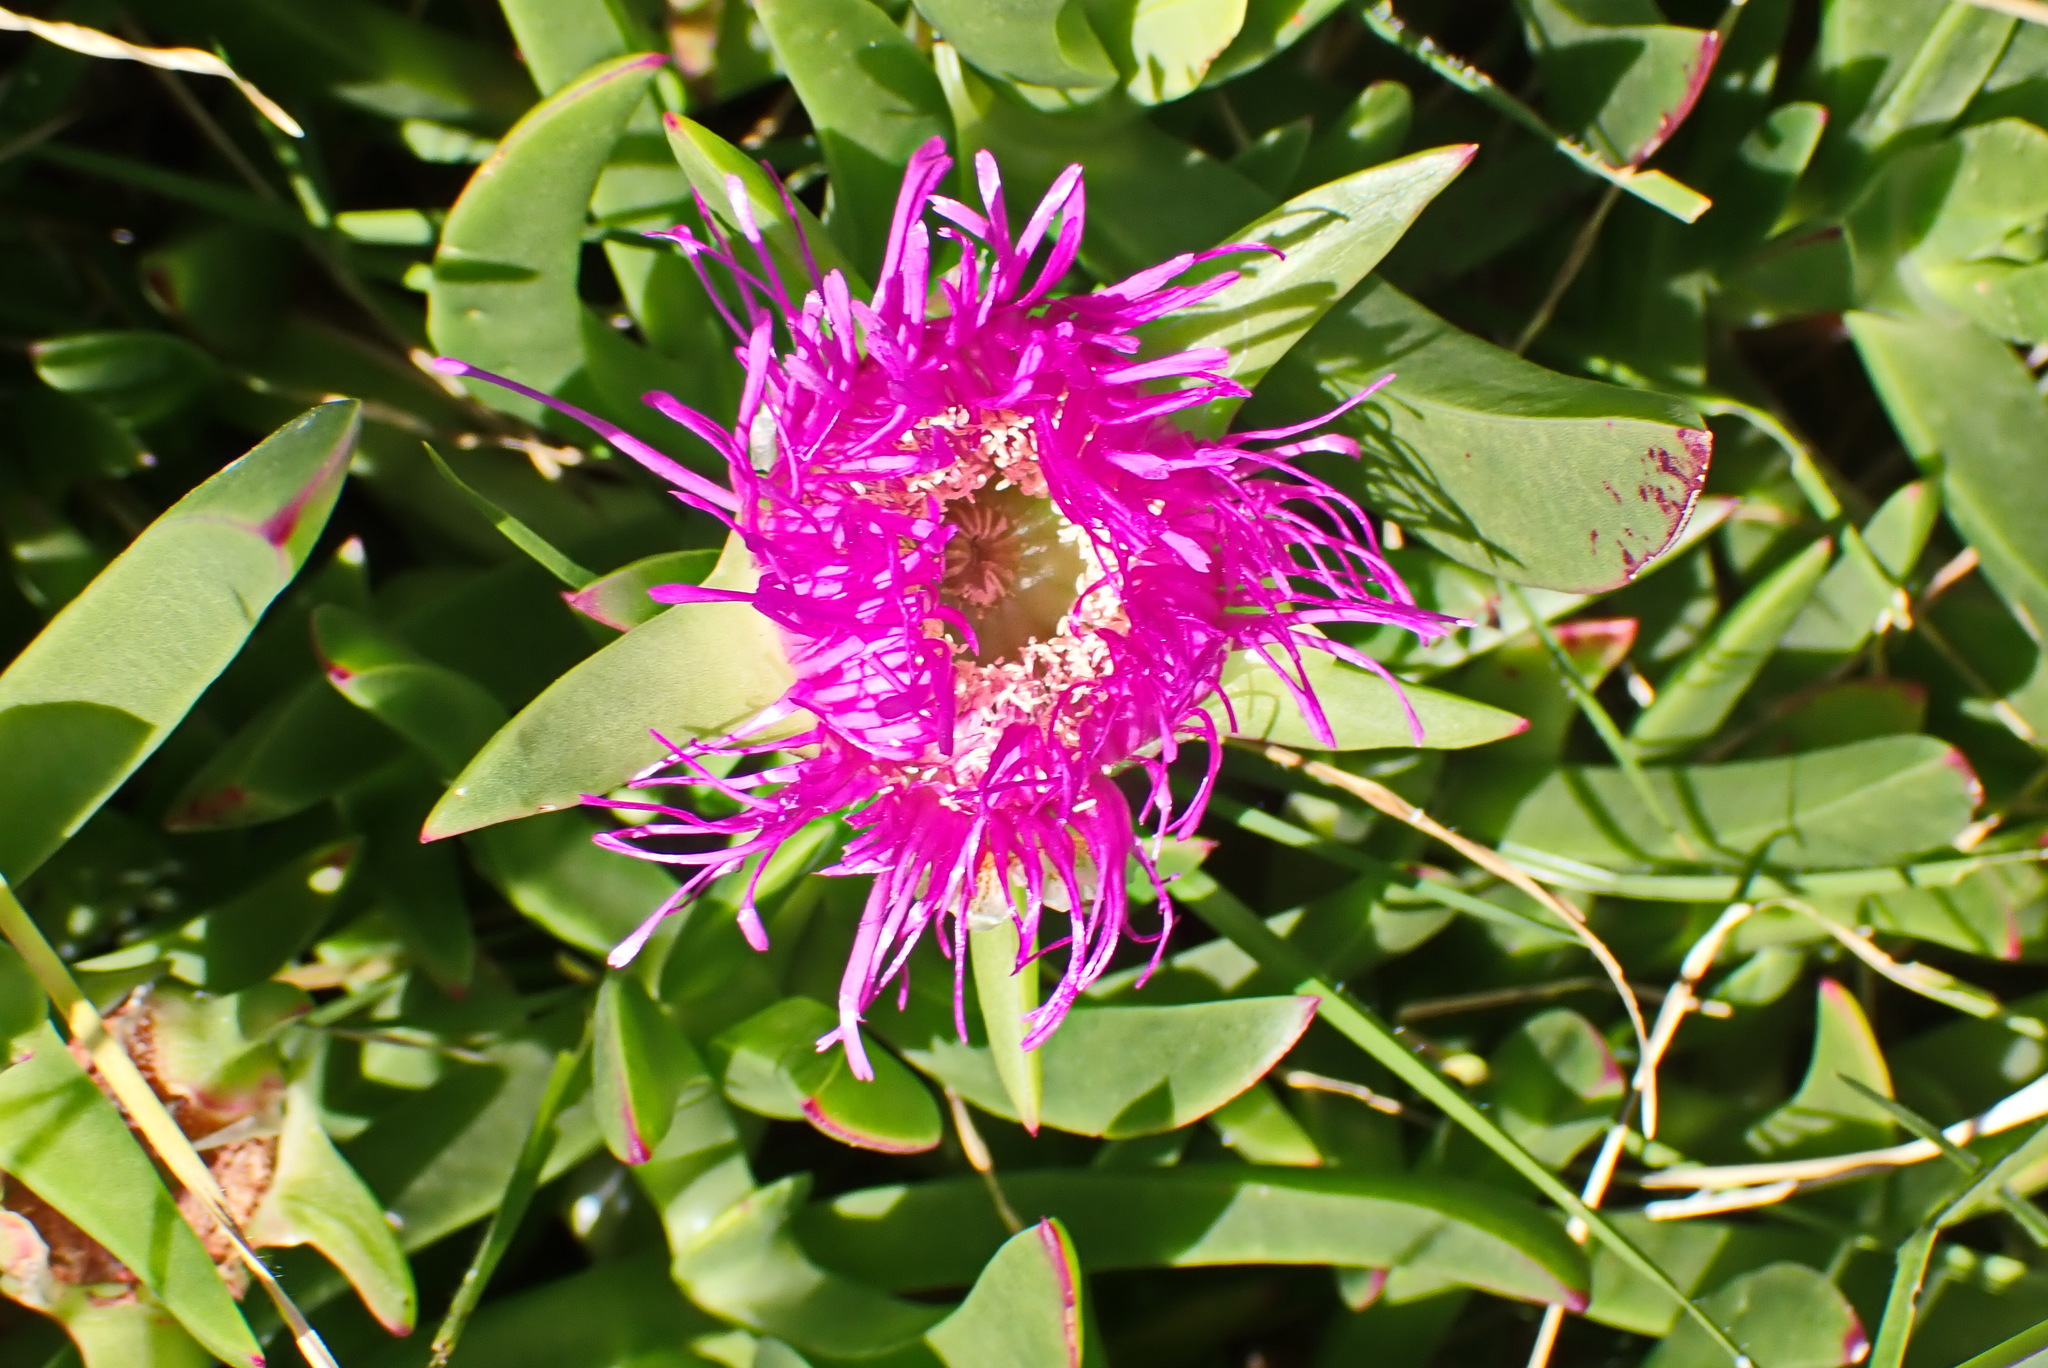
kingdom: Plantae
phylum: Tracheophyta
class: Magnoliopsida
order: Caryophyllales
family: Aizoaceae
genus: Carpobrotus
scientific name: Carpobrotus deliciosus
